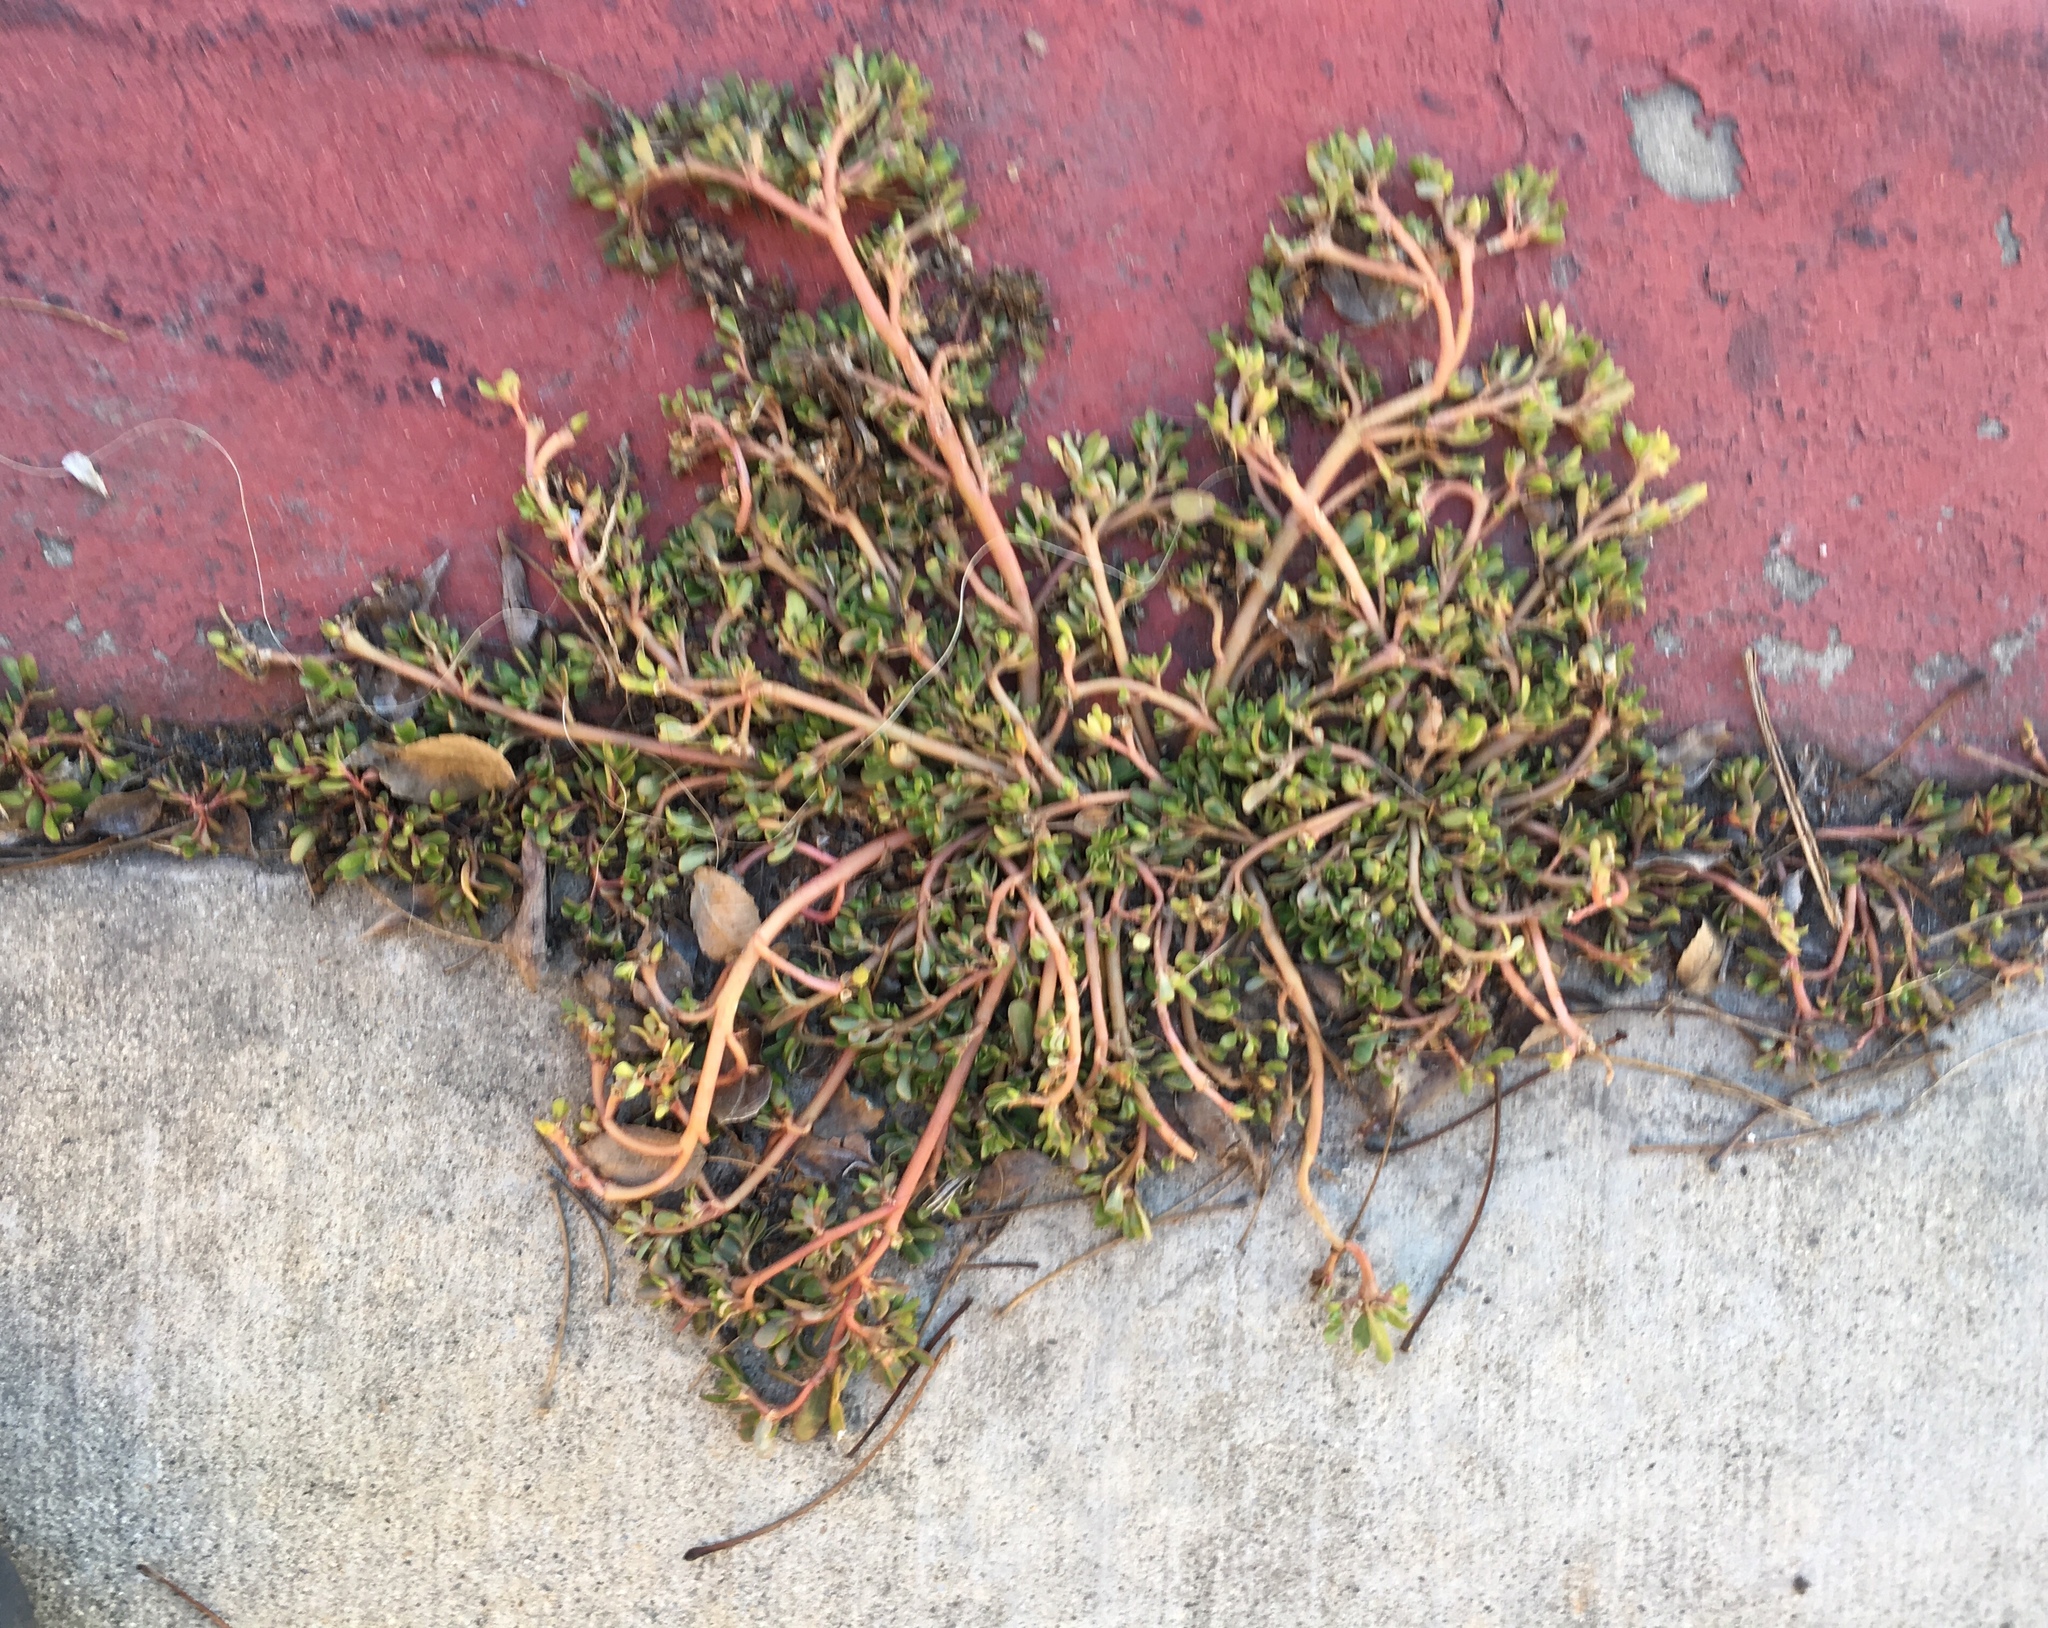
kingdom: Plantae
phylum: Tracheophyta
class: Magnoliopsida
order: Caryophyllales
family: Portulacaceae
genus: Portulaca
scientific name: Portulaca oleracea
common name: Common purslane
